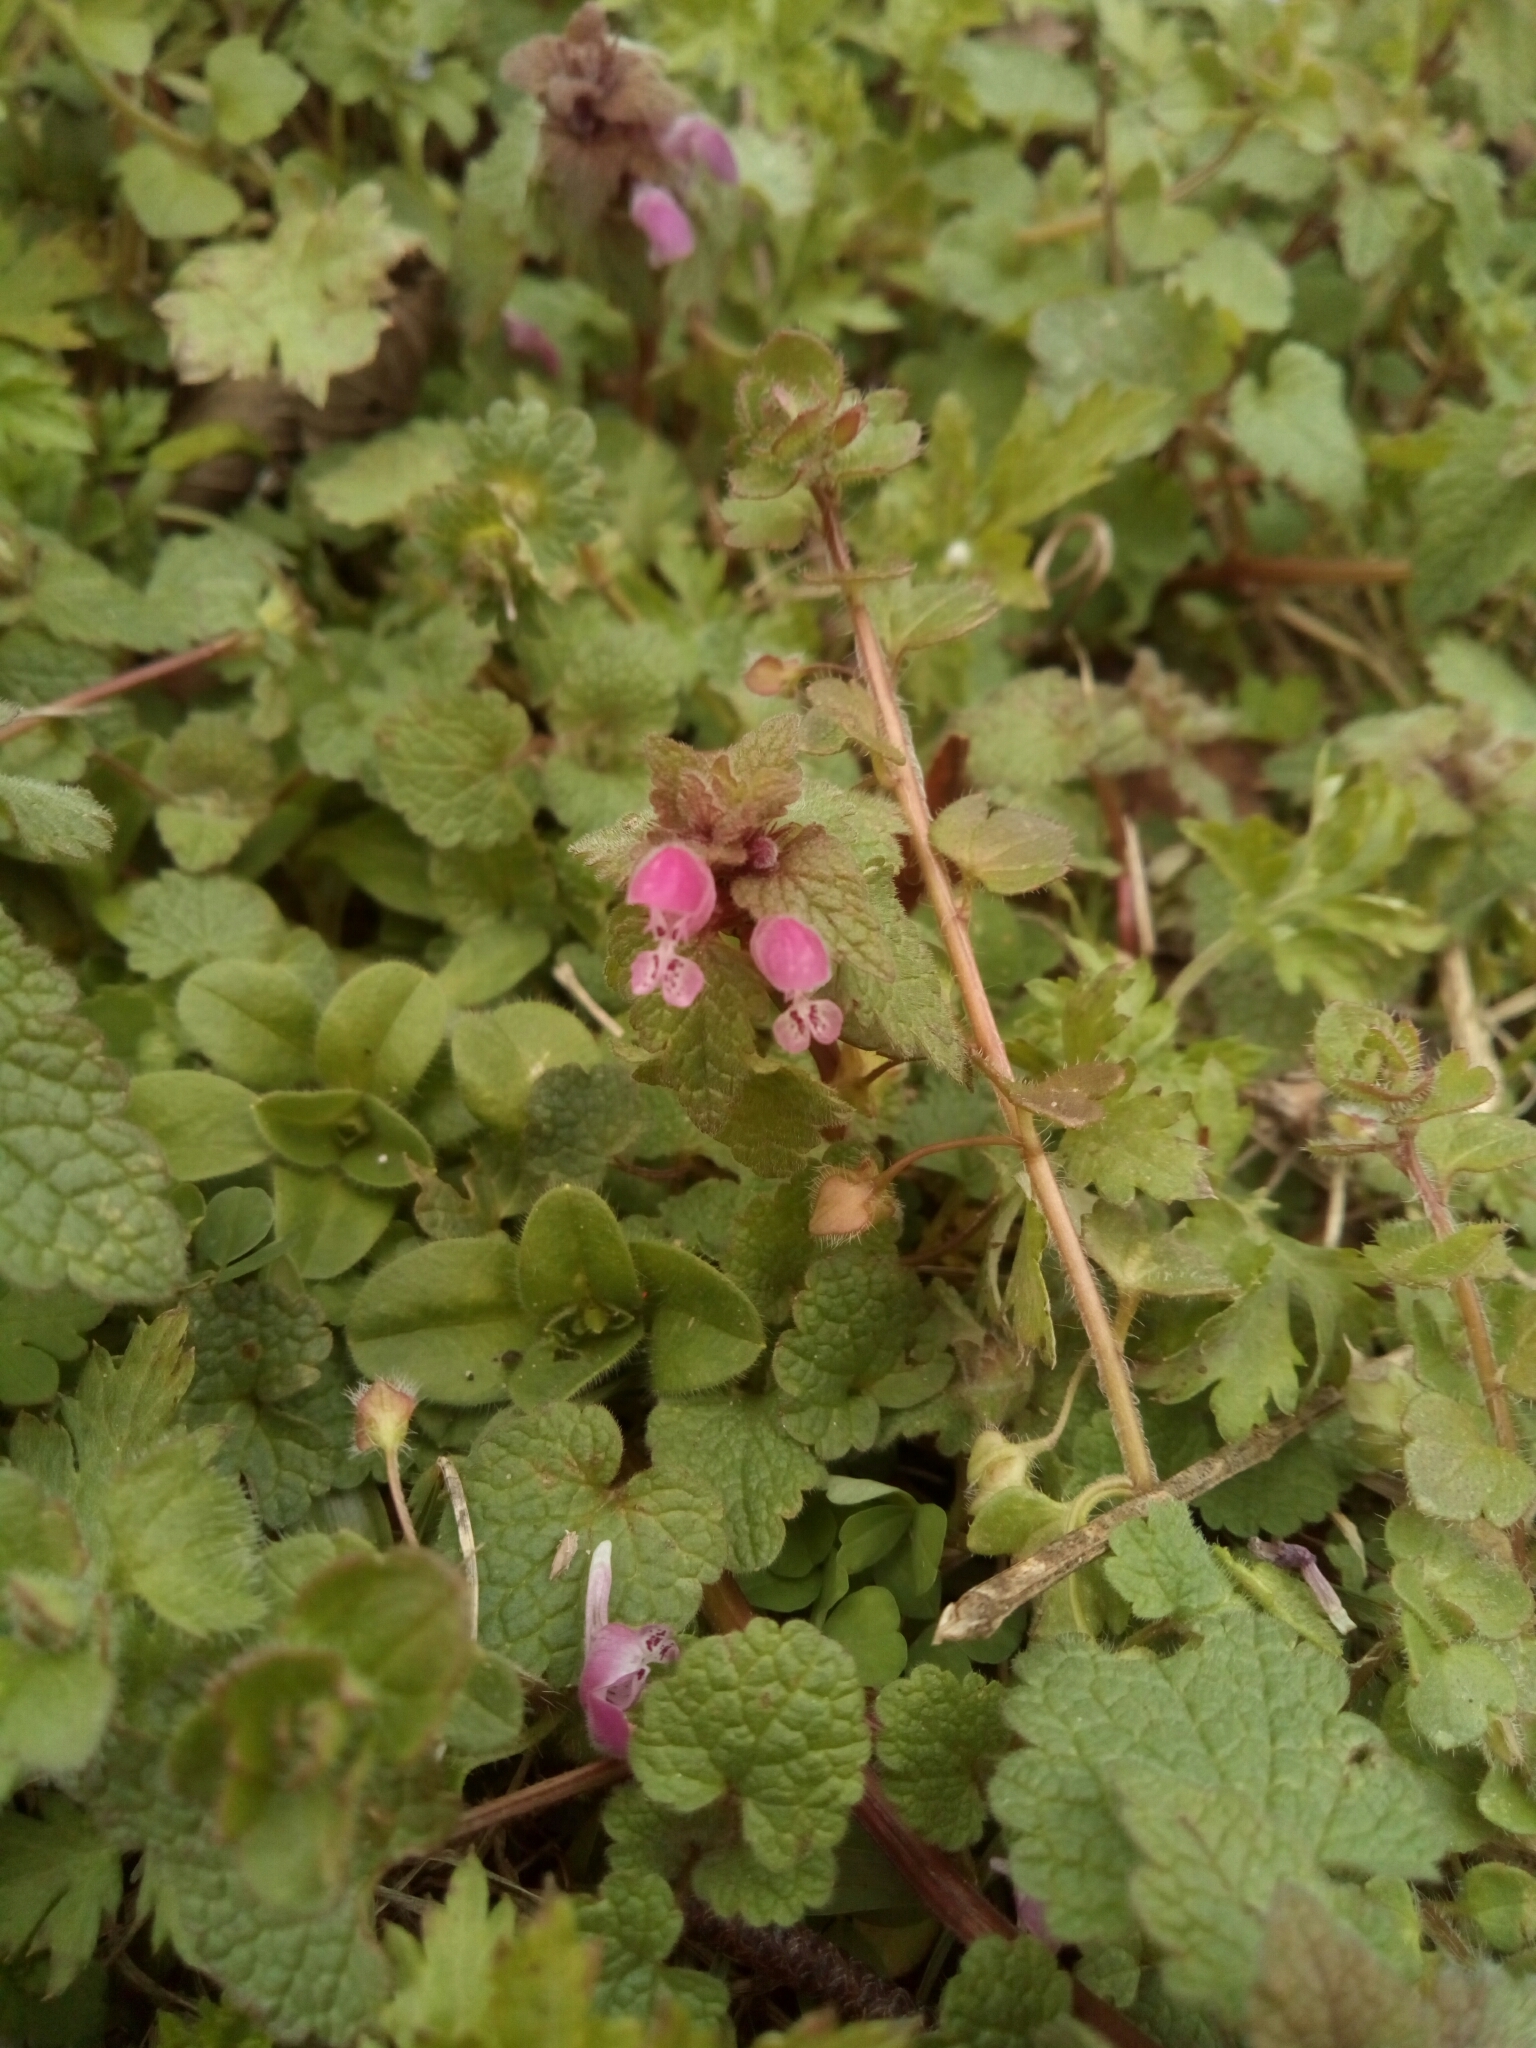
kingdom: Plantae
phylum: Tracheophyta
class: Magnoliopsida
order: Lamiales
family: Lamiaceae
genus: Lamium
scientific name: Lamium purpureum
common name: Red dead-nettle
